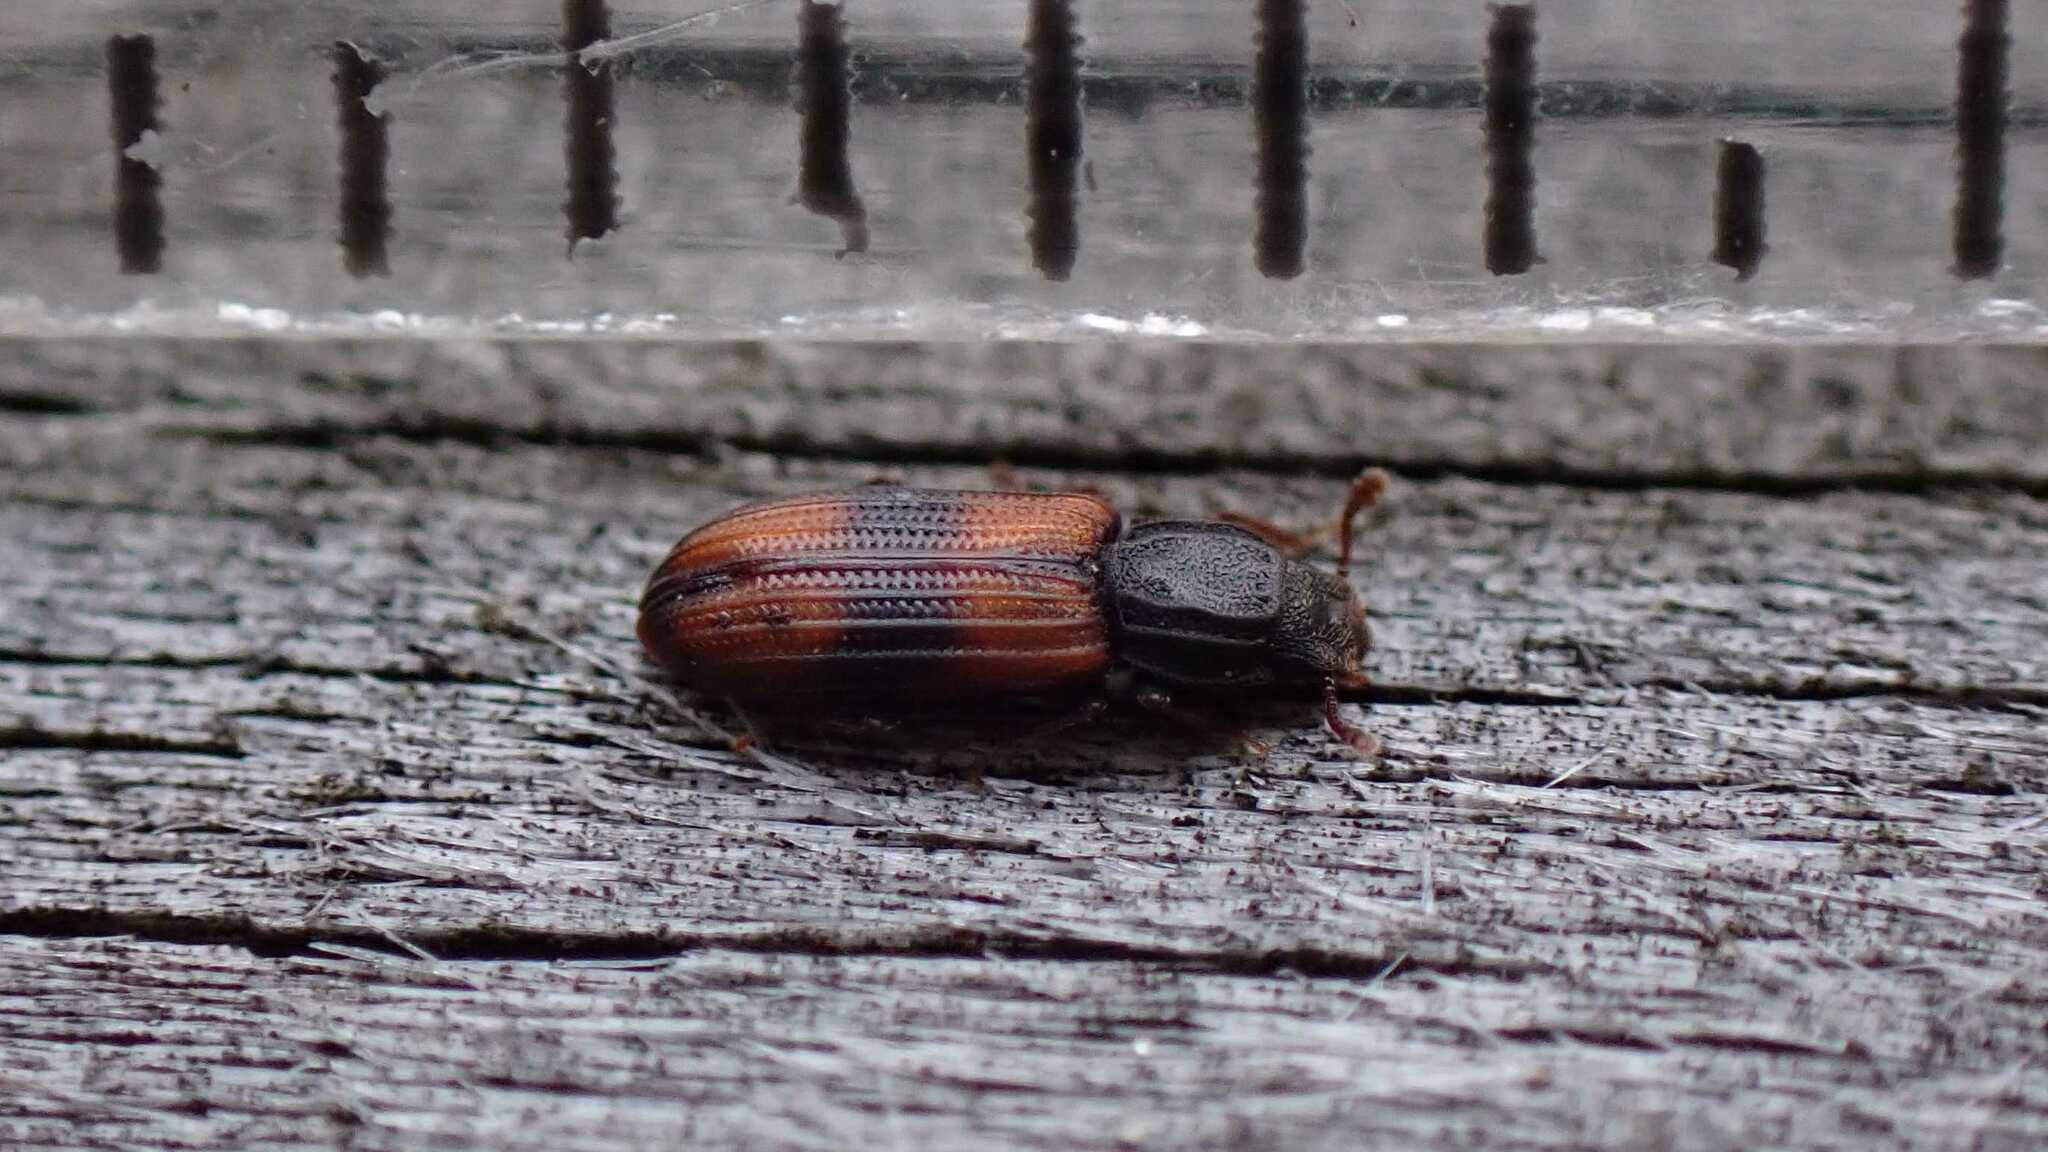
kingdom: Animalia
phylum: Arthropoda
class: Insecta
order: Coleoptera
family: Zopheridae
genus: Bitoma
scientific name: Bitoma crenata
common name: Bark beetle
